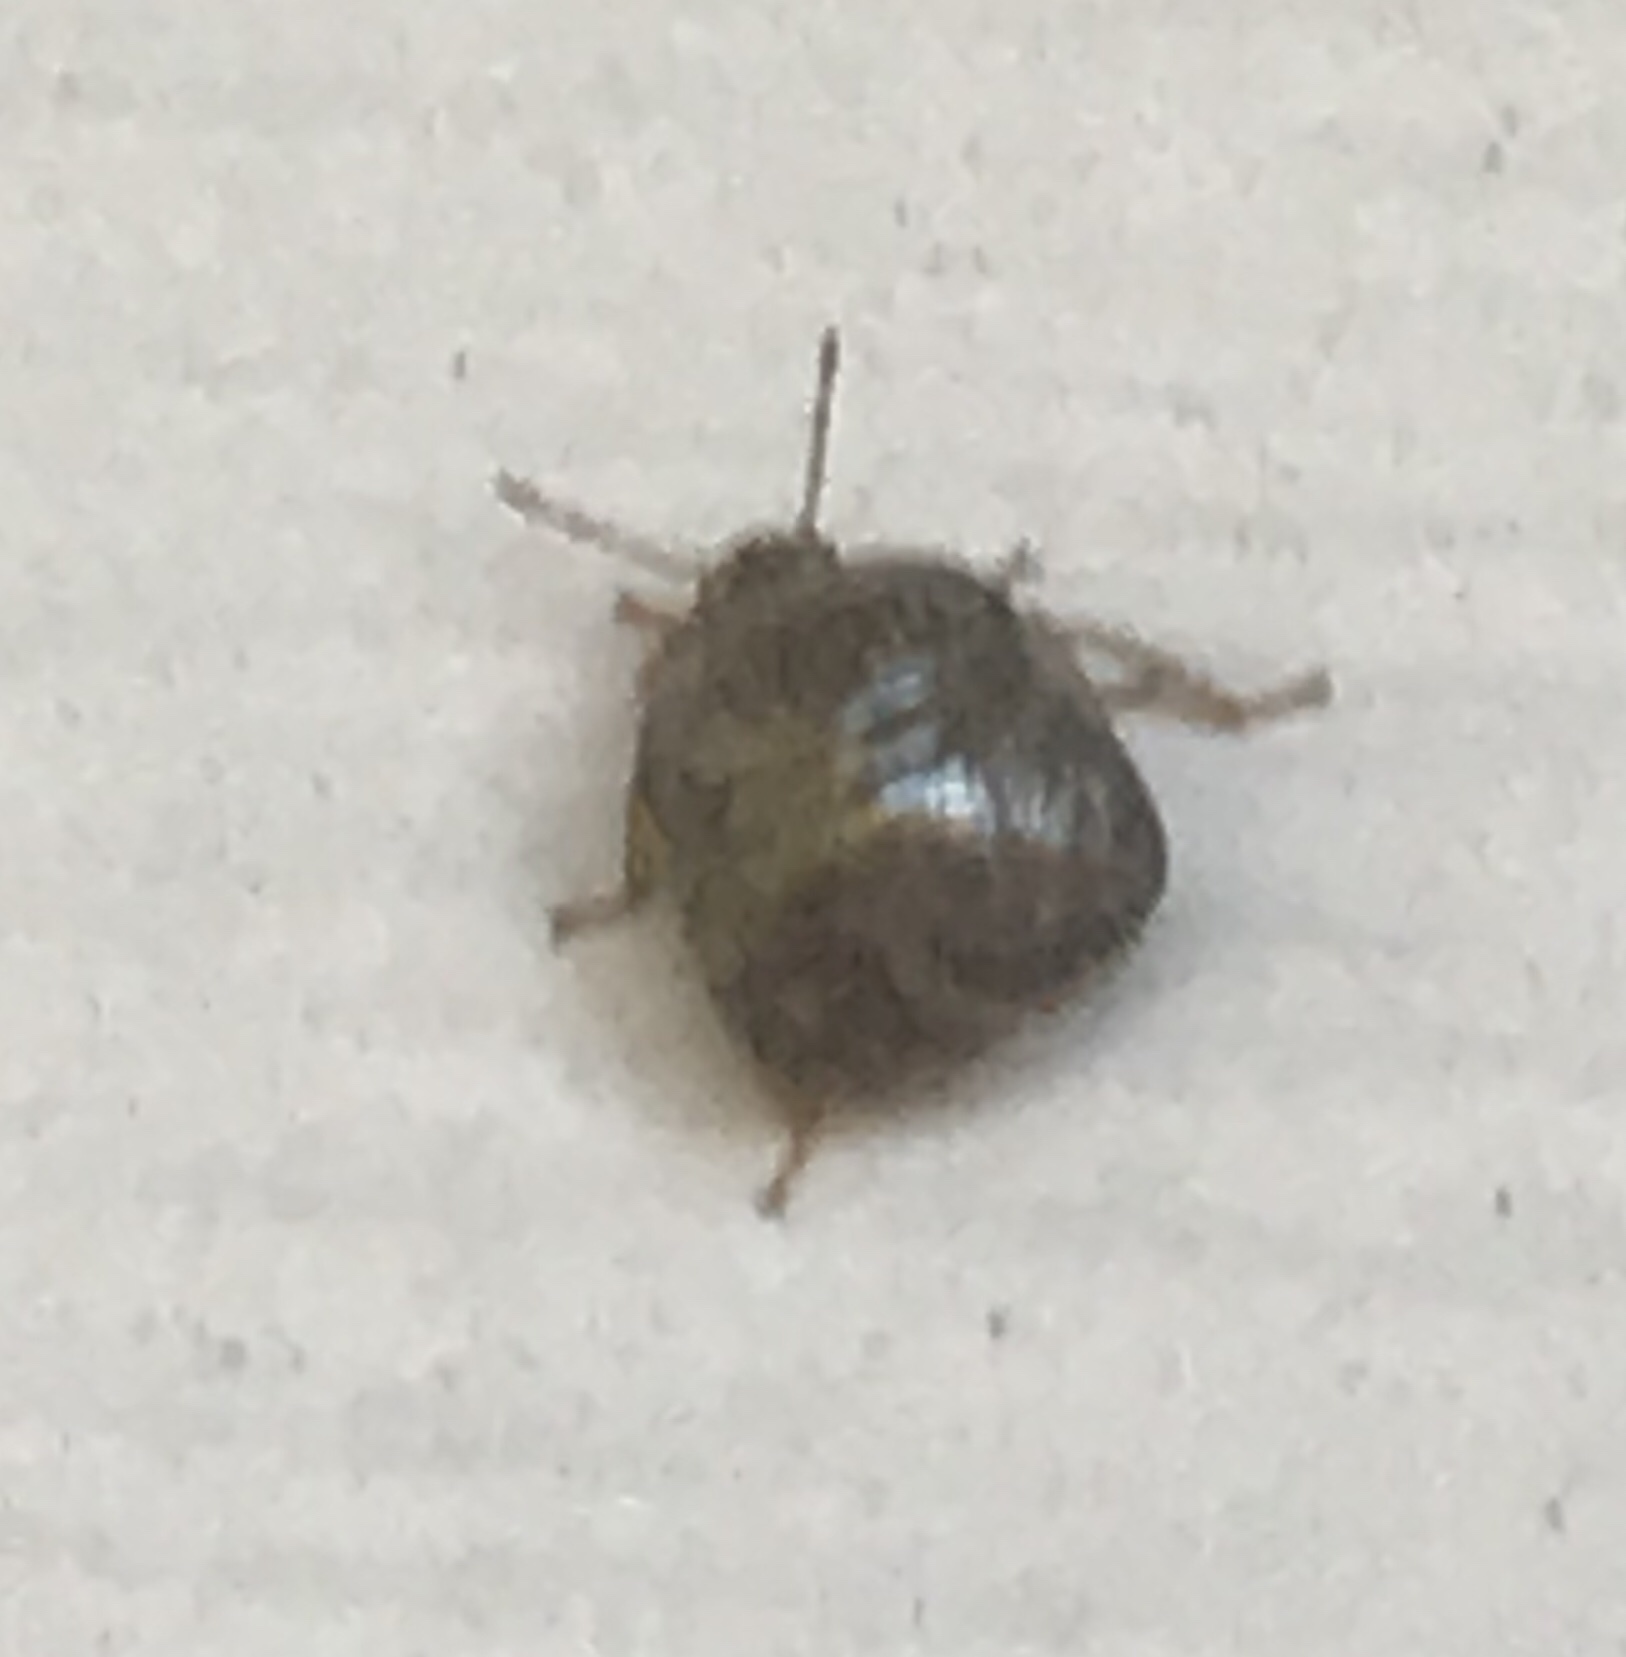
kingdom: Animalia
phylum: Arthropoda
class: Insecta
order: Hemiptera
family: Plataspidae
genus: Megacopta
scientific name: Megacopta cribraria
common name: Bean plataspid
